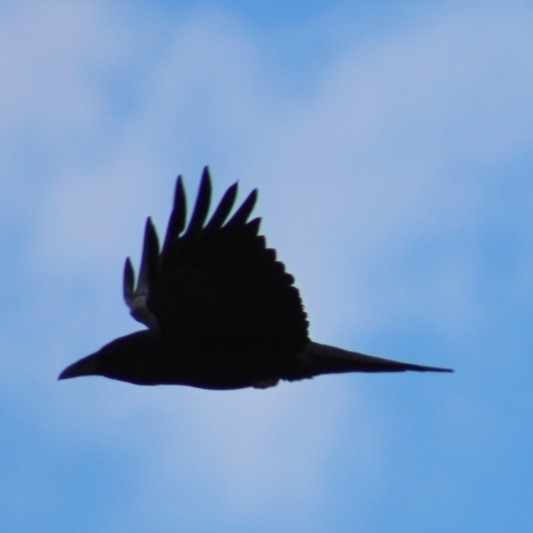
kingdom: Animalia
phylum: Chordata
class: Aves
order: Passeriformes
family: Corvidae
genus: Corvus
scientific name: Corvus corax
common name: Common raven
